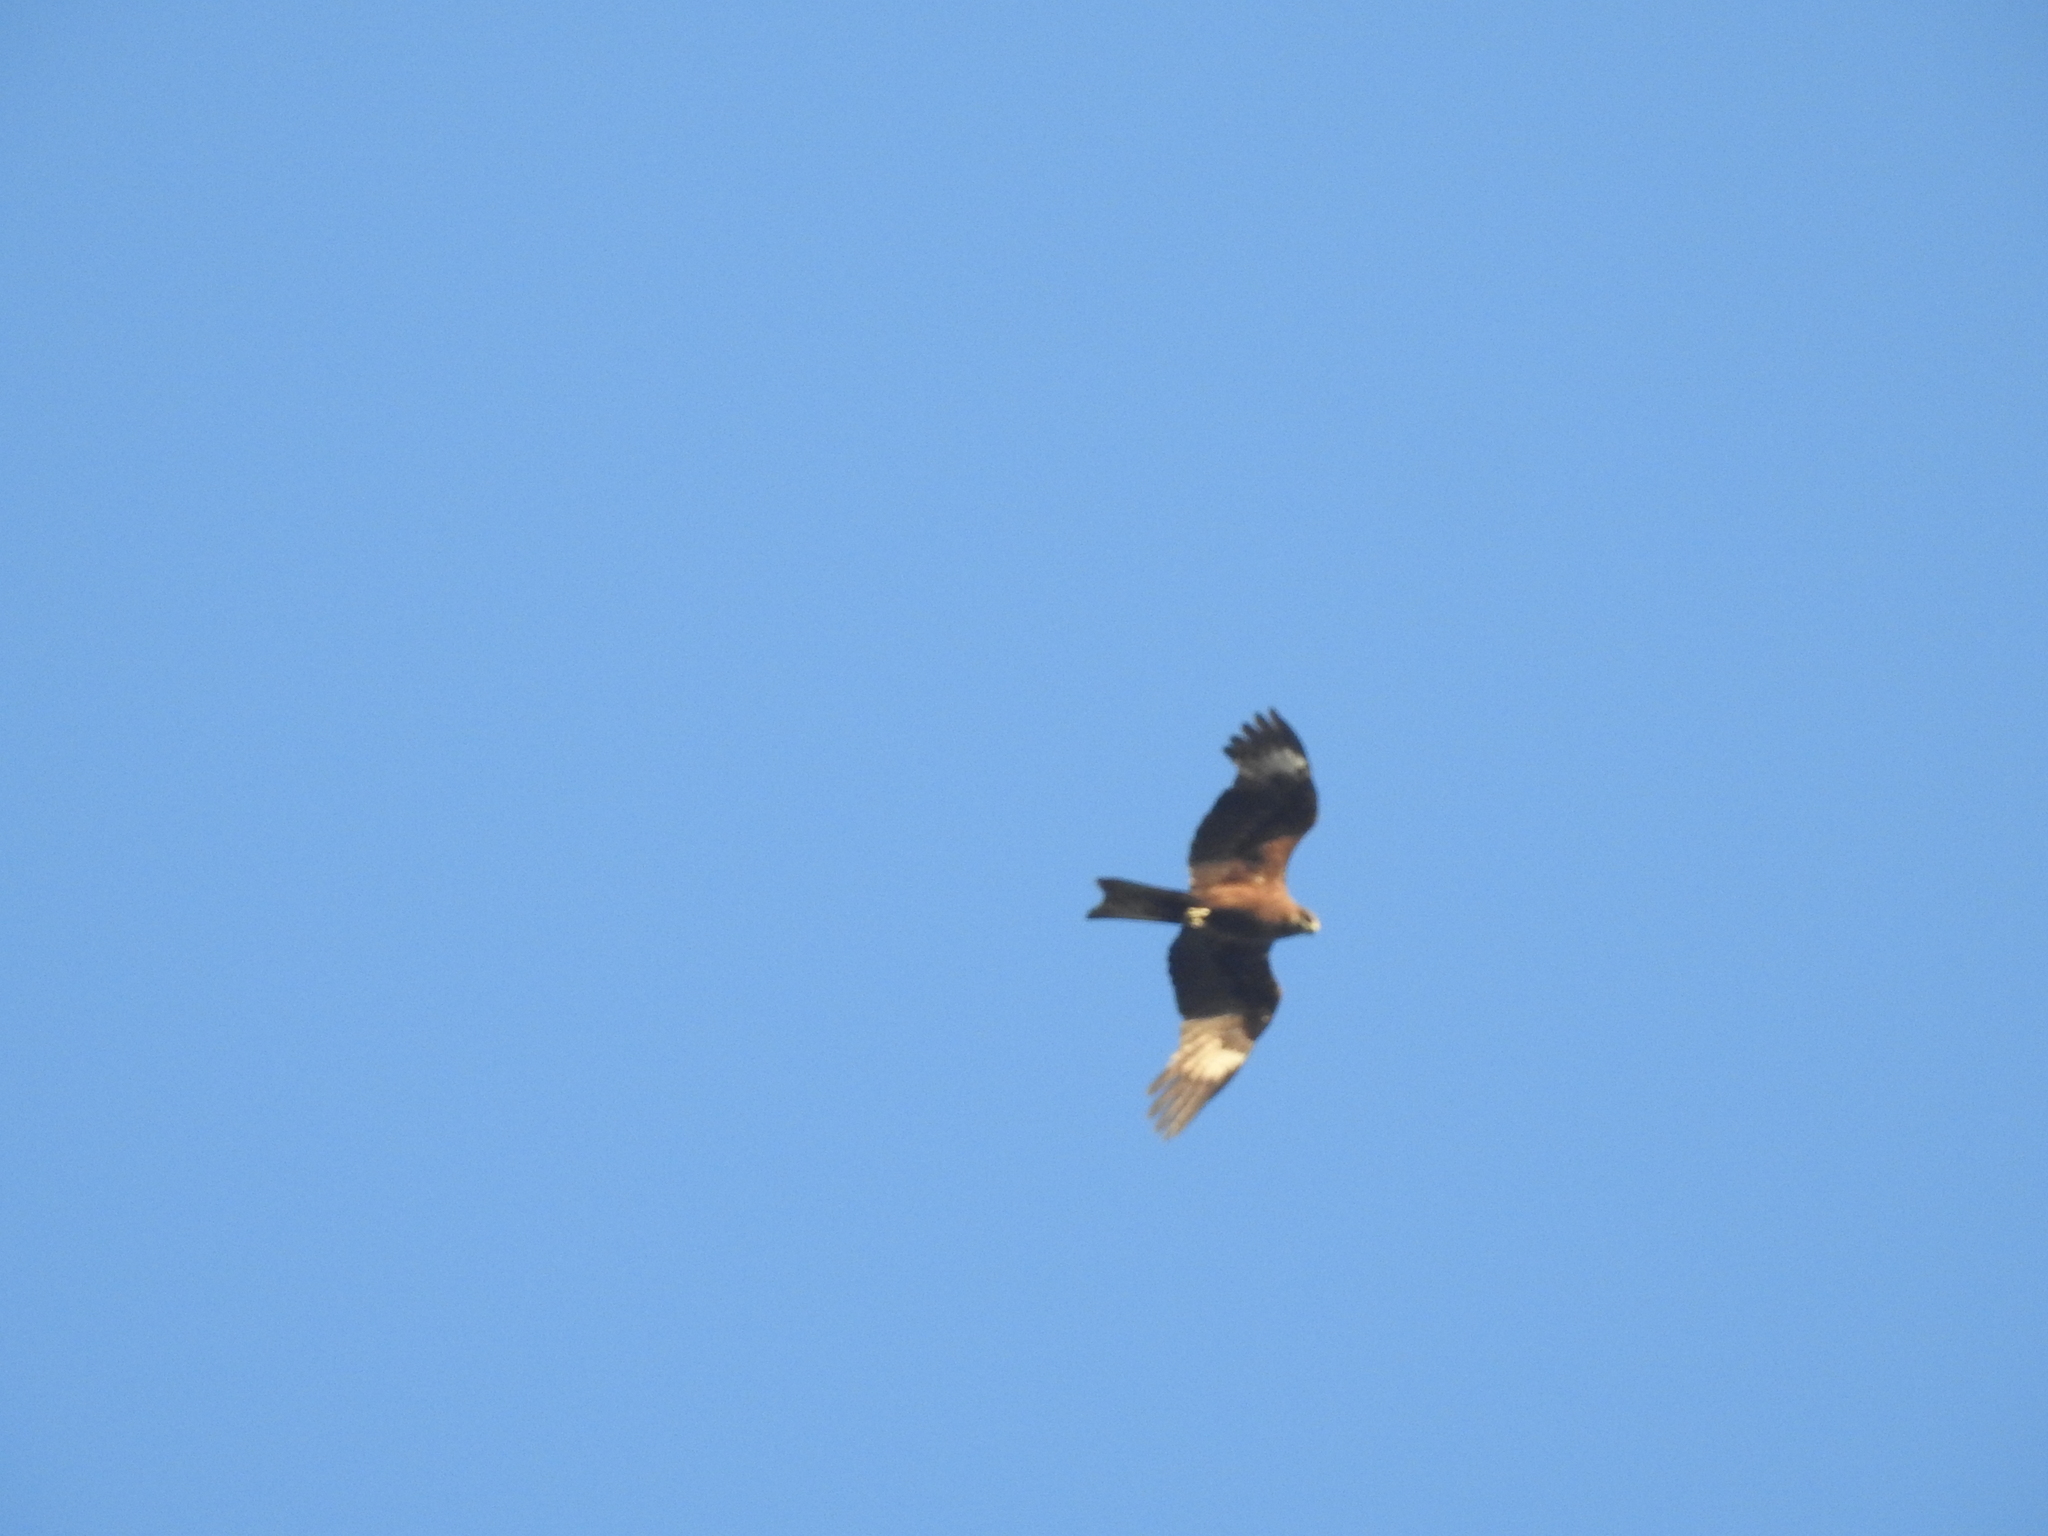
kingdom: Animalia
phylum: Chordata
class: Aves
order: Accipitriformes
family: Accipitridae
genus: Milvus
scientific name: Milvus migrans
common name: Black kite
